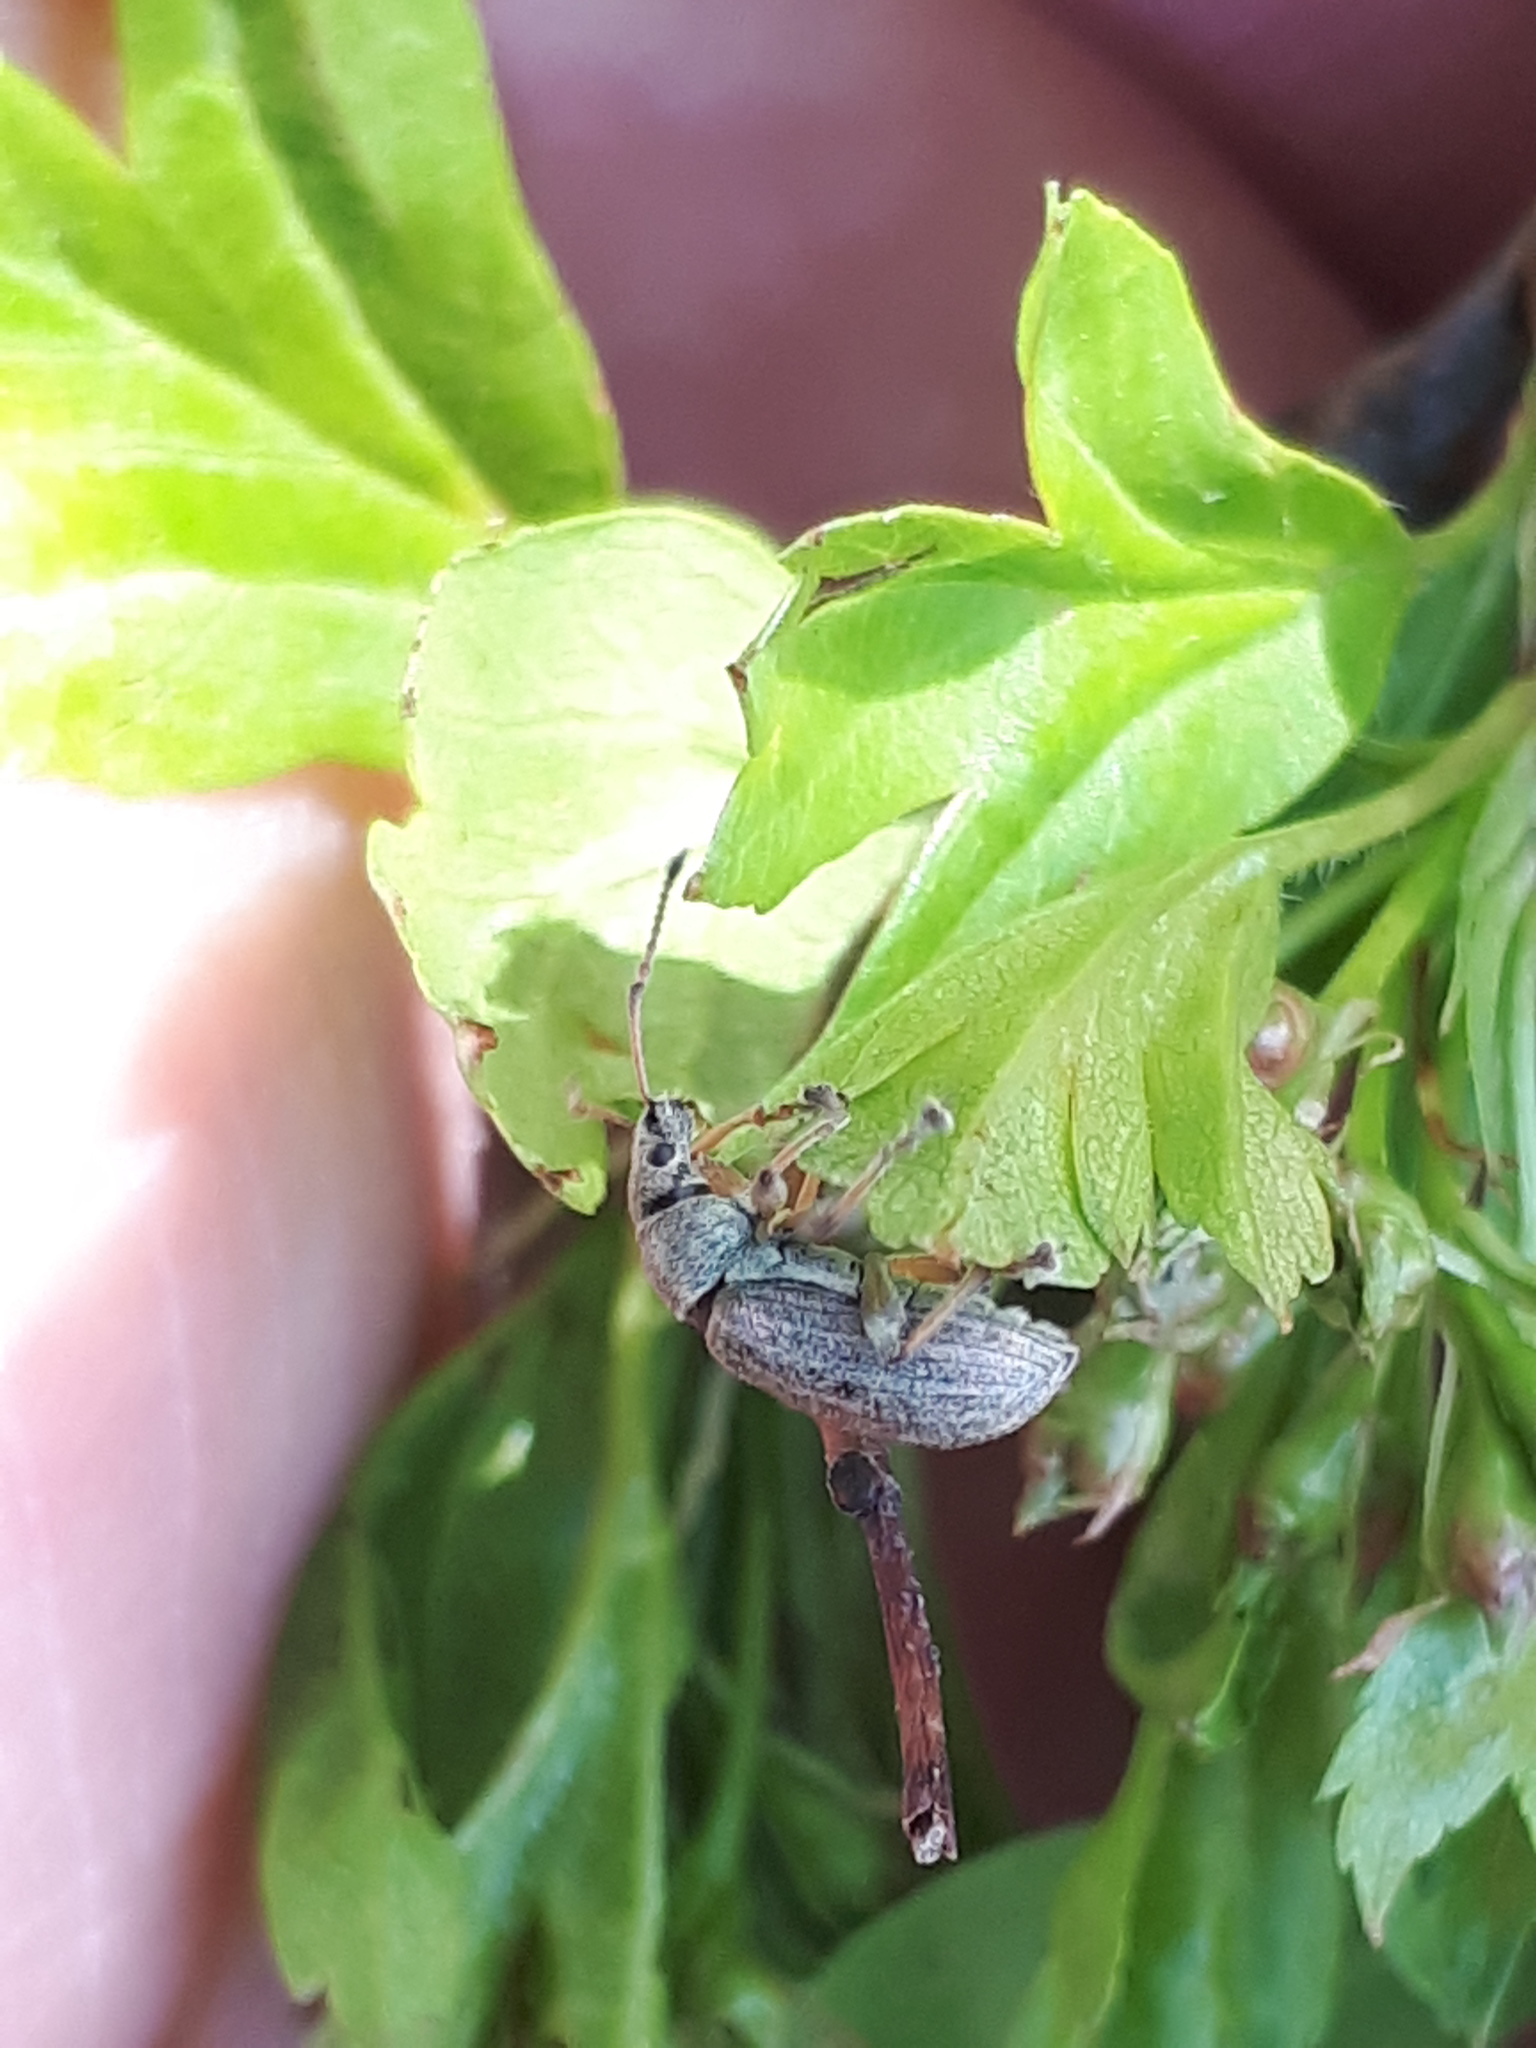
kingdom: Animalia
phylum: Arthropoda
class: Insecta
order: Coleoptera
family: Curculionidae
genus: Phyllobius
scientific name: Phyllobius pyri
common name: Common leaf weevil
